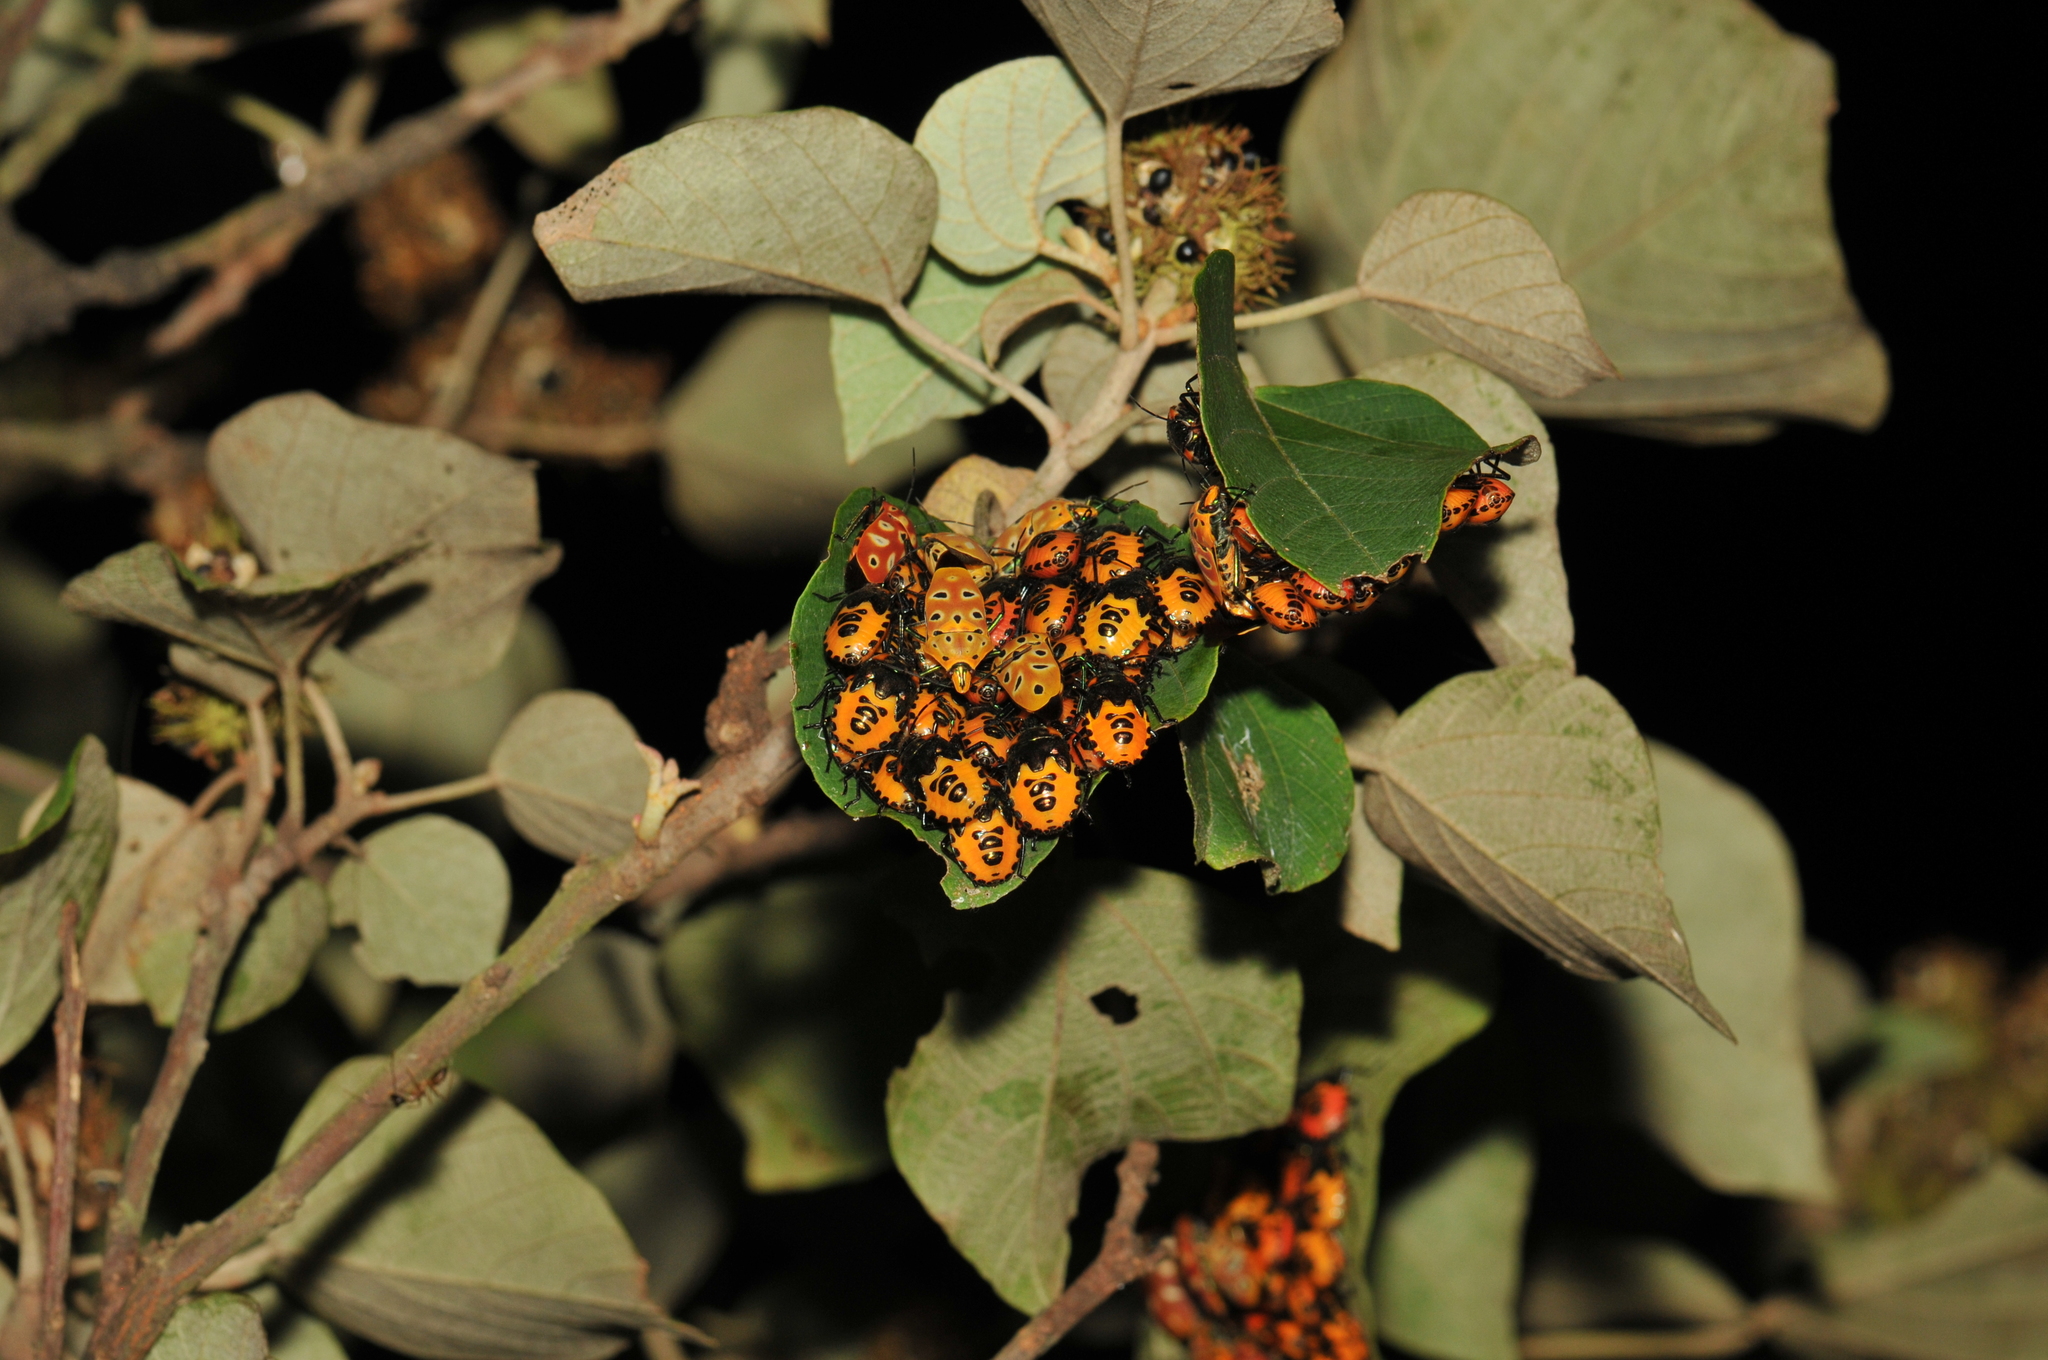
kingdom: Animalia
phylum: Arthropoda
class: Insecta
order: Hemiptera
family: Scutelleridae
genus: Cantao
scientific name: Cantao ocellatus
